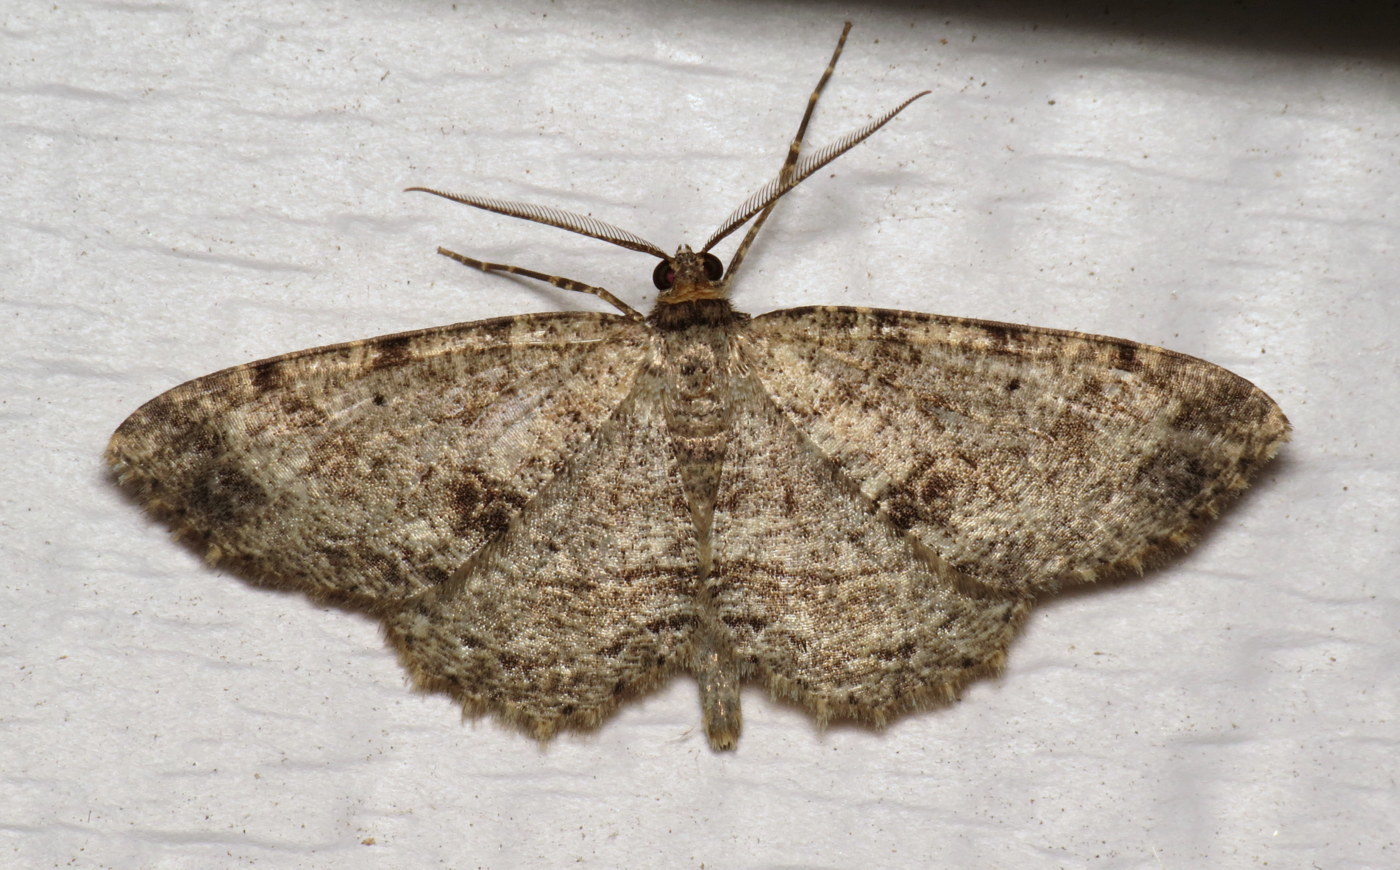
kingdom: Animalia
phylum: Arthropoda
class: Insecta
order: Lepidoptera
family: Geometridae
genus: Melanolophia
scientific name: Melanolophia canadaria
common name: Canadian melanolophia
